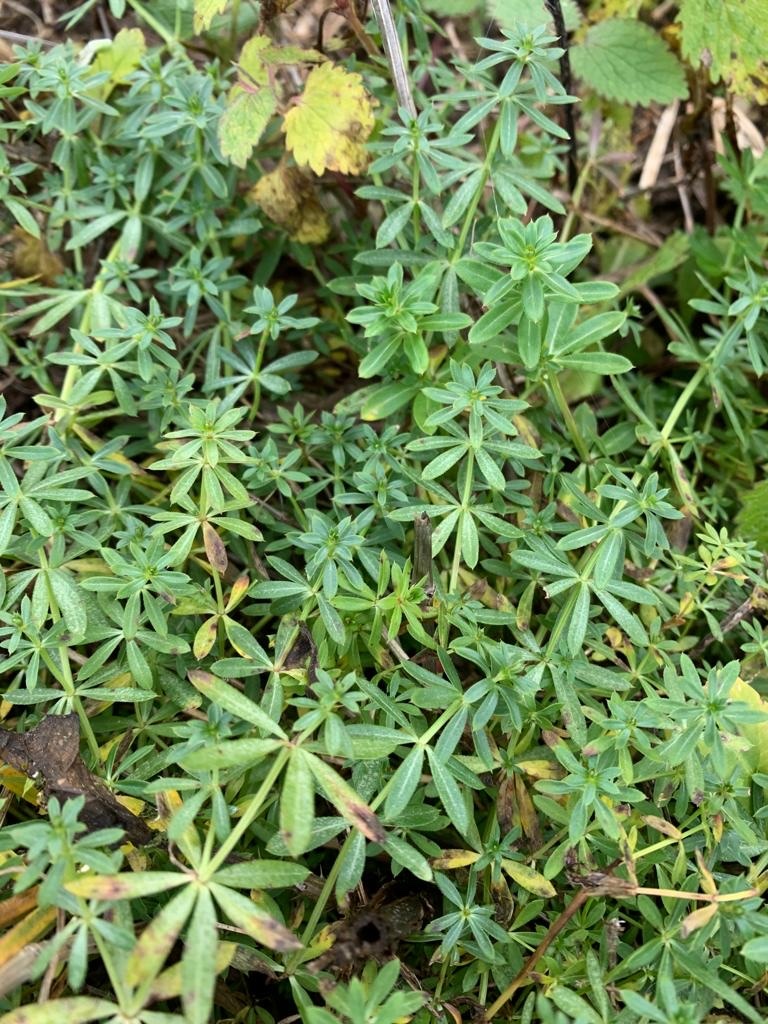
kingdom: Plantae
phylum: Tracheophyta
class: Magnoliopsida
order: Gentianales
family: Rubiaceae
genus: Galium
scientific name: Galium mollugo
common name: Hedge bedstraw
